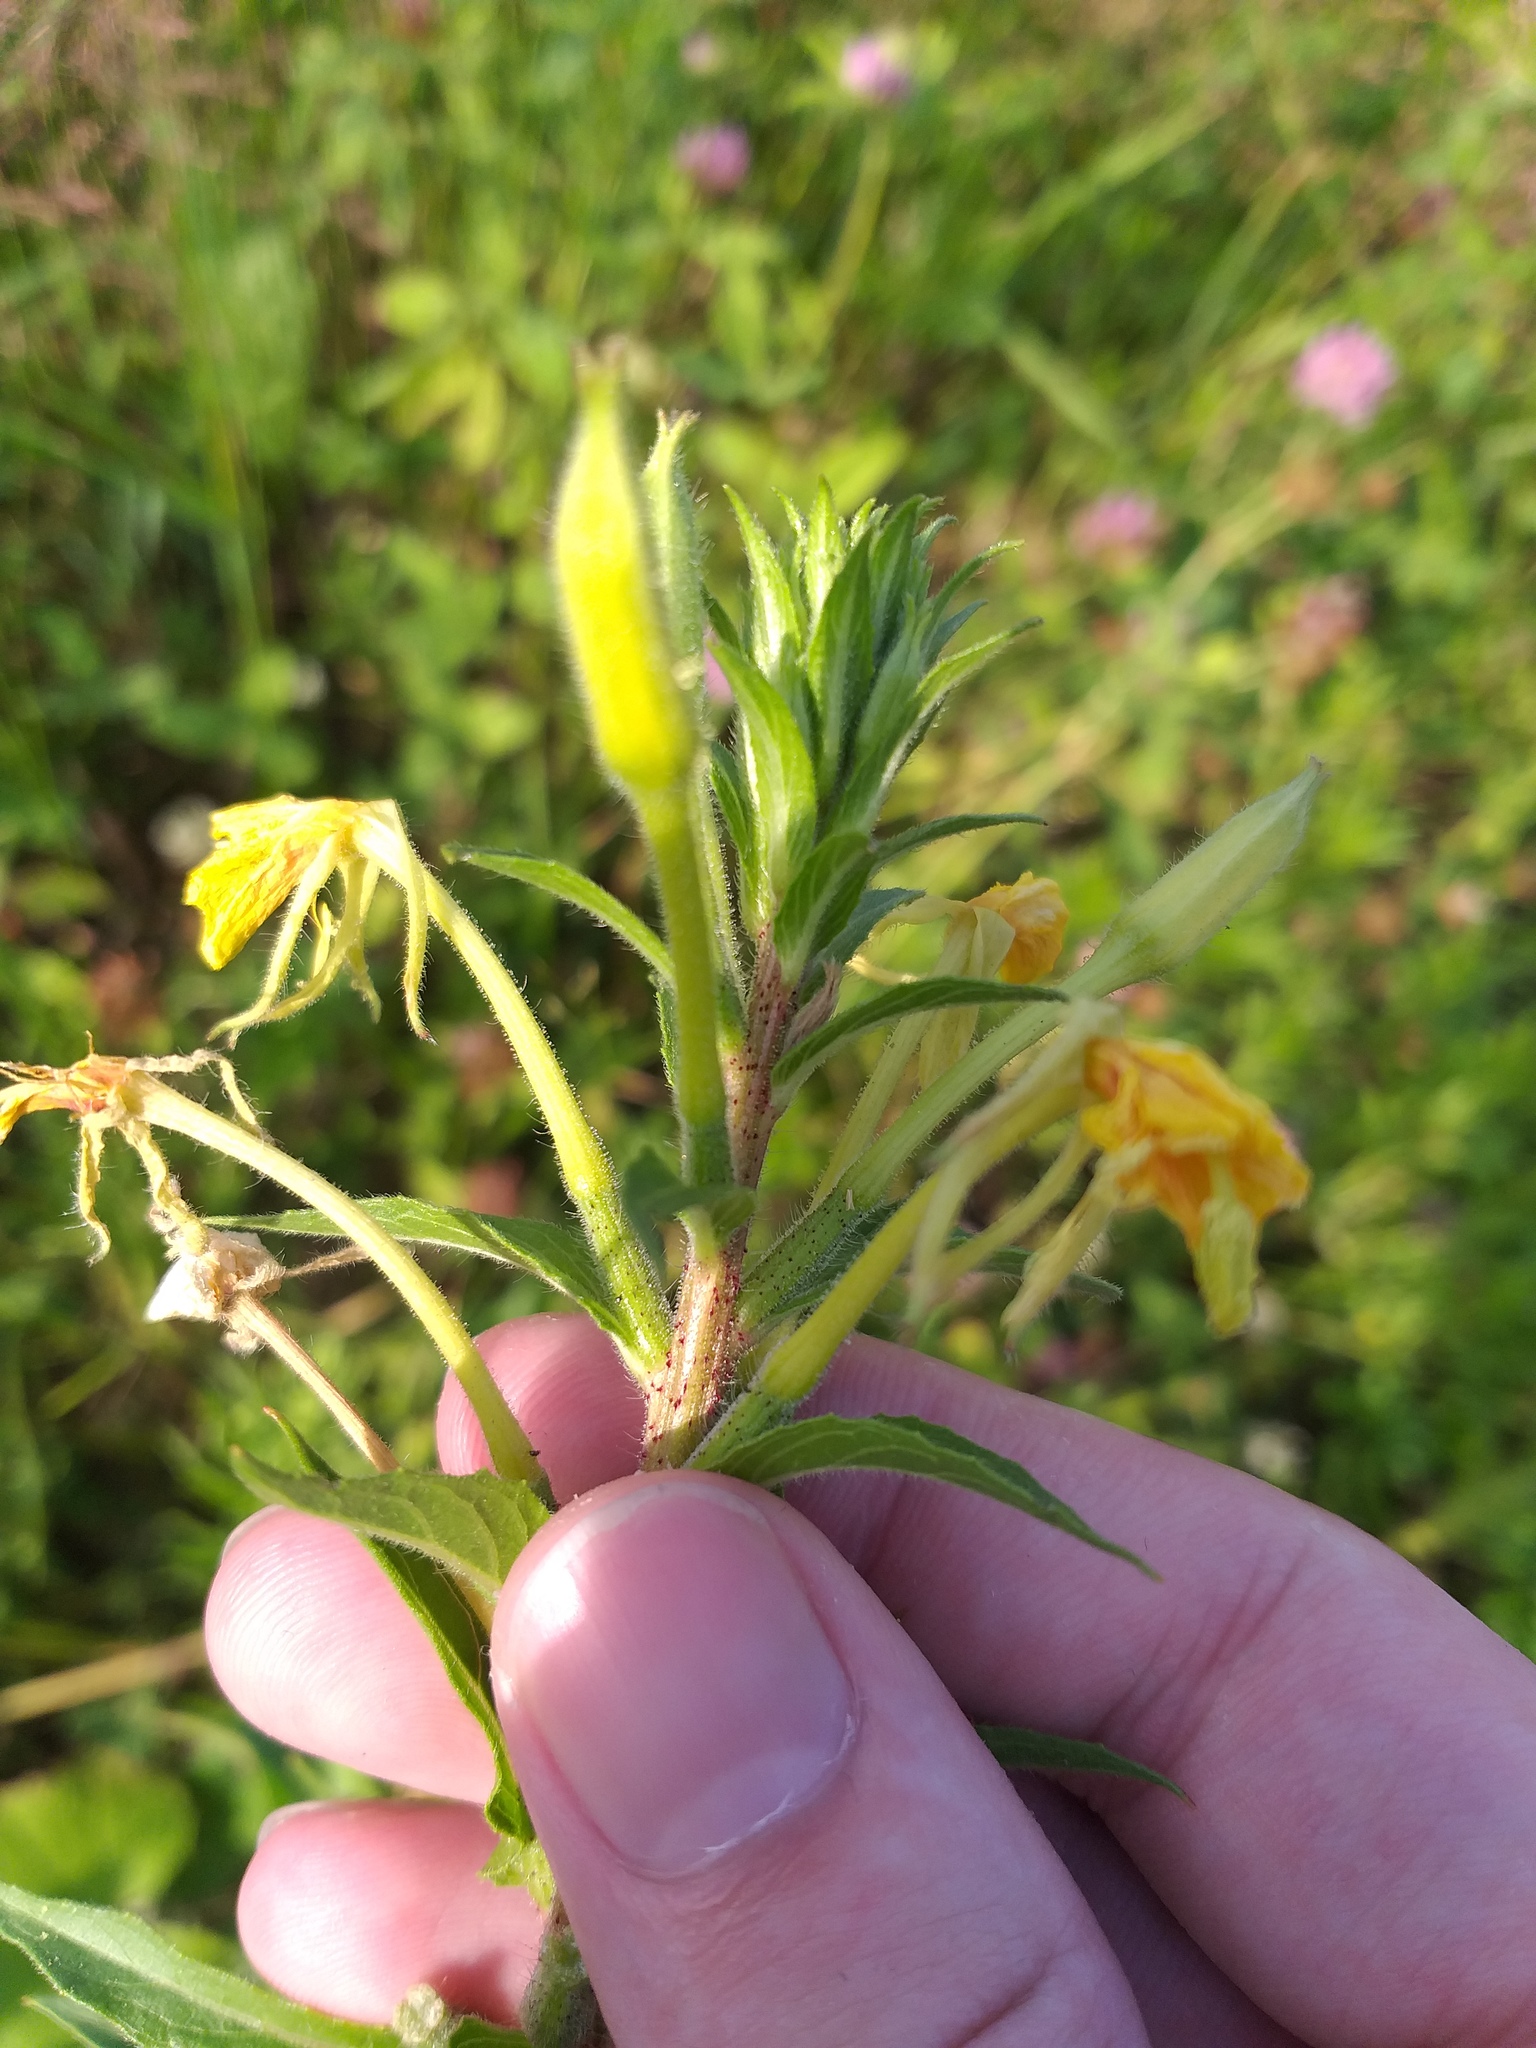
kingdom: Plantae
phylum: Tracheophyta
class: Magnoliopsida
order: Myrtales
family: Onagraceae
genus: Oenothera
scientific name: Oenothera rubricaulis
